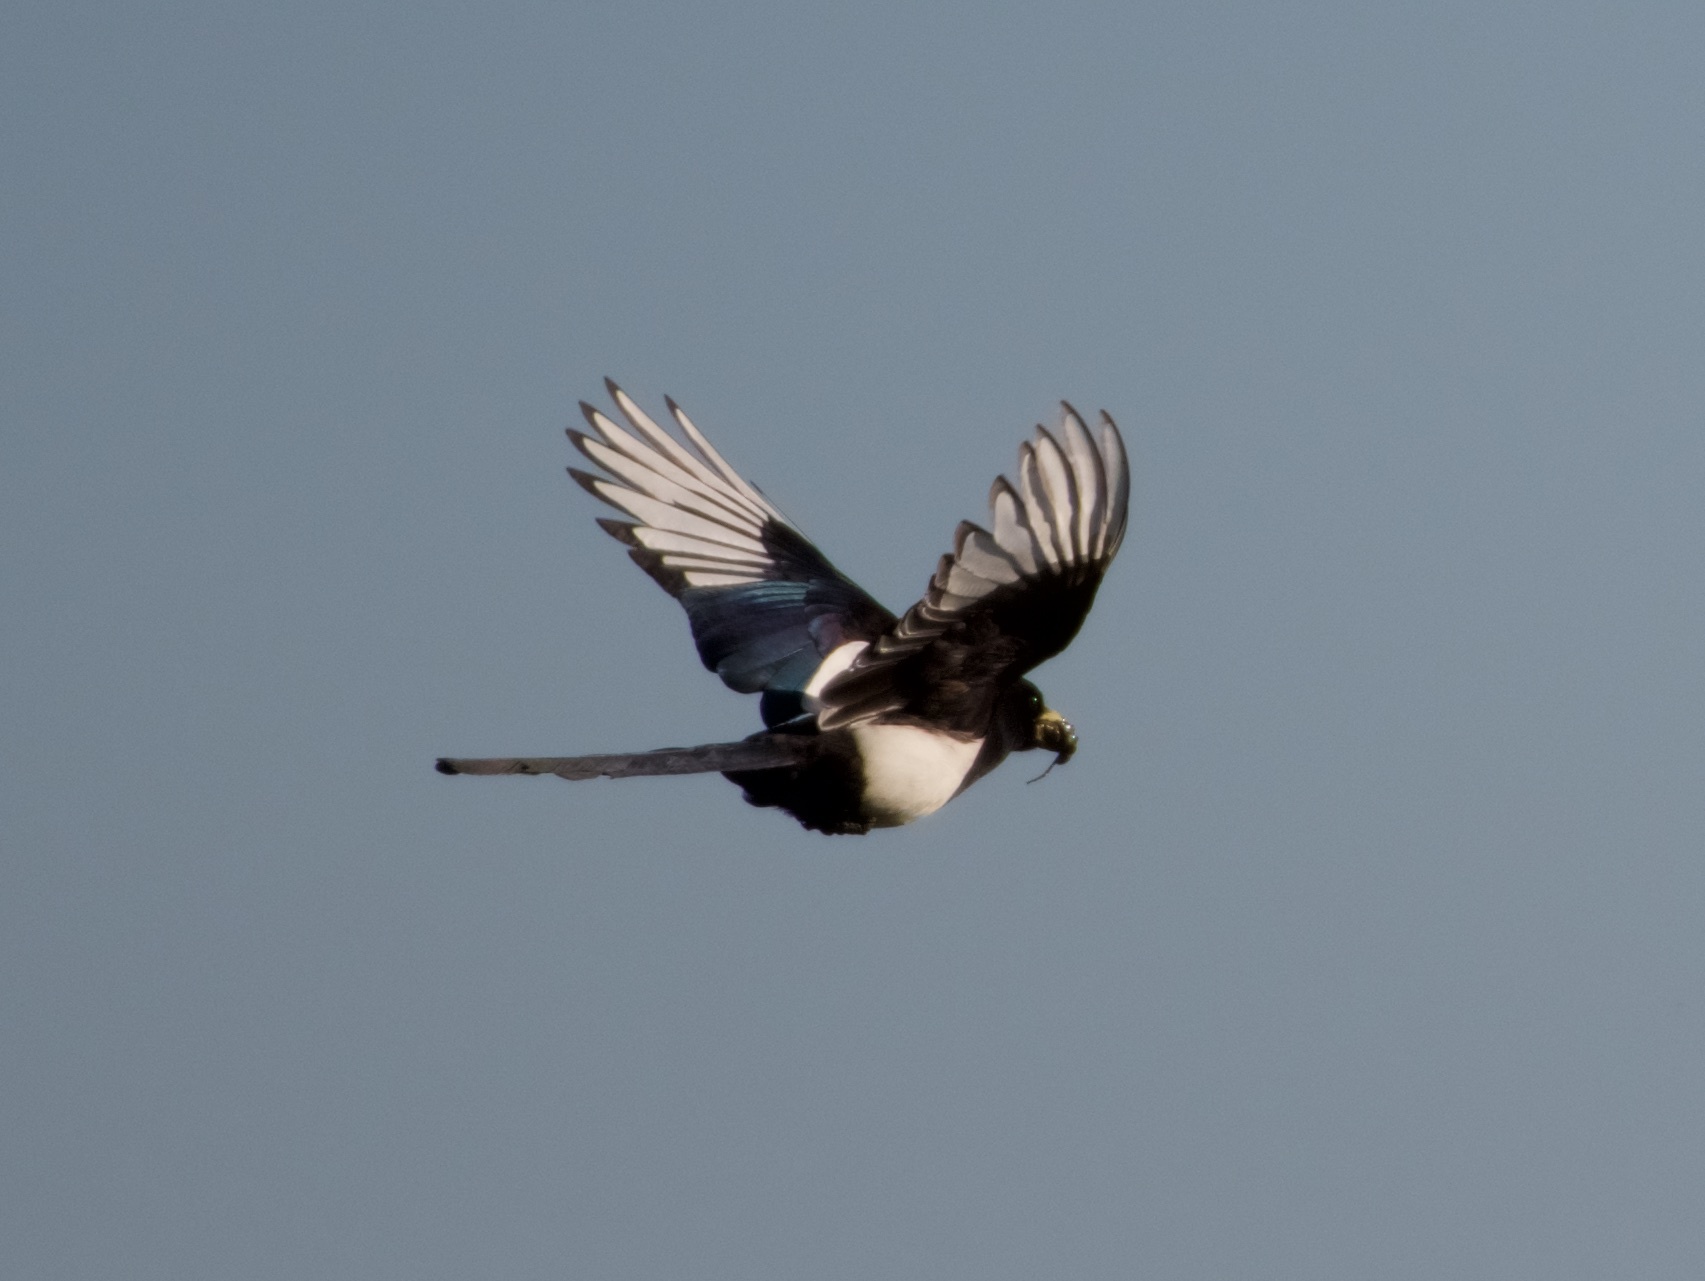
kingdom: Animalia
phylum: Chordata
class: Aves
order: Passeriformes
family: Corvidae
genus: Pica
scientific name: Pica nuttalli
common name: Yellow-billed magpie
